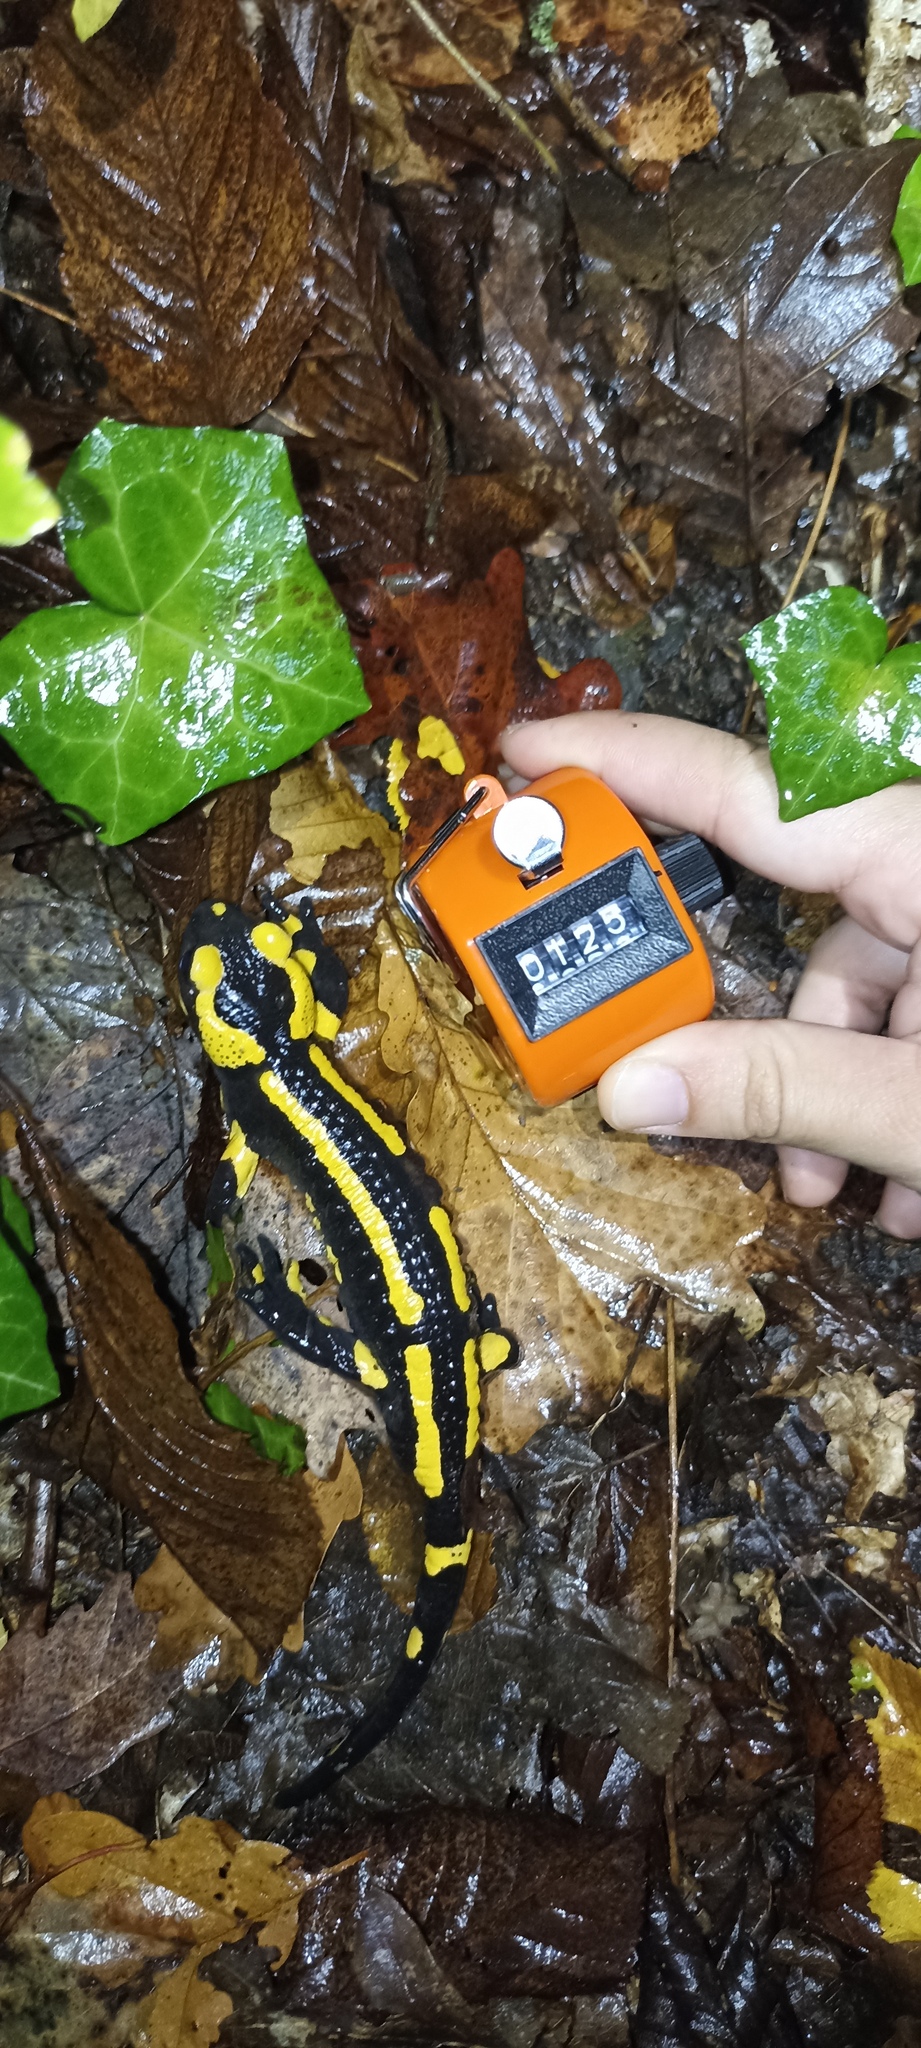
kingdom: Animalia
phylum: Chordata
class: Amphibia
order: Caudata
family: Salamandridae
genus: Salamandra
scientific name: Salamandra salamandra
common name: Fire salamander
